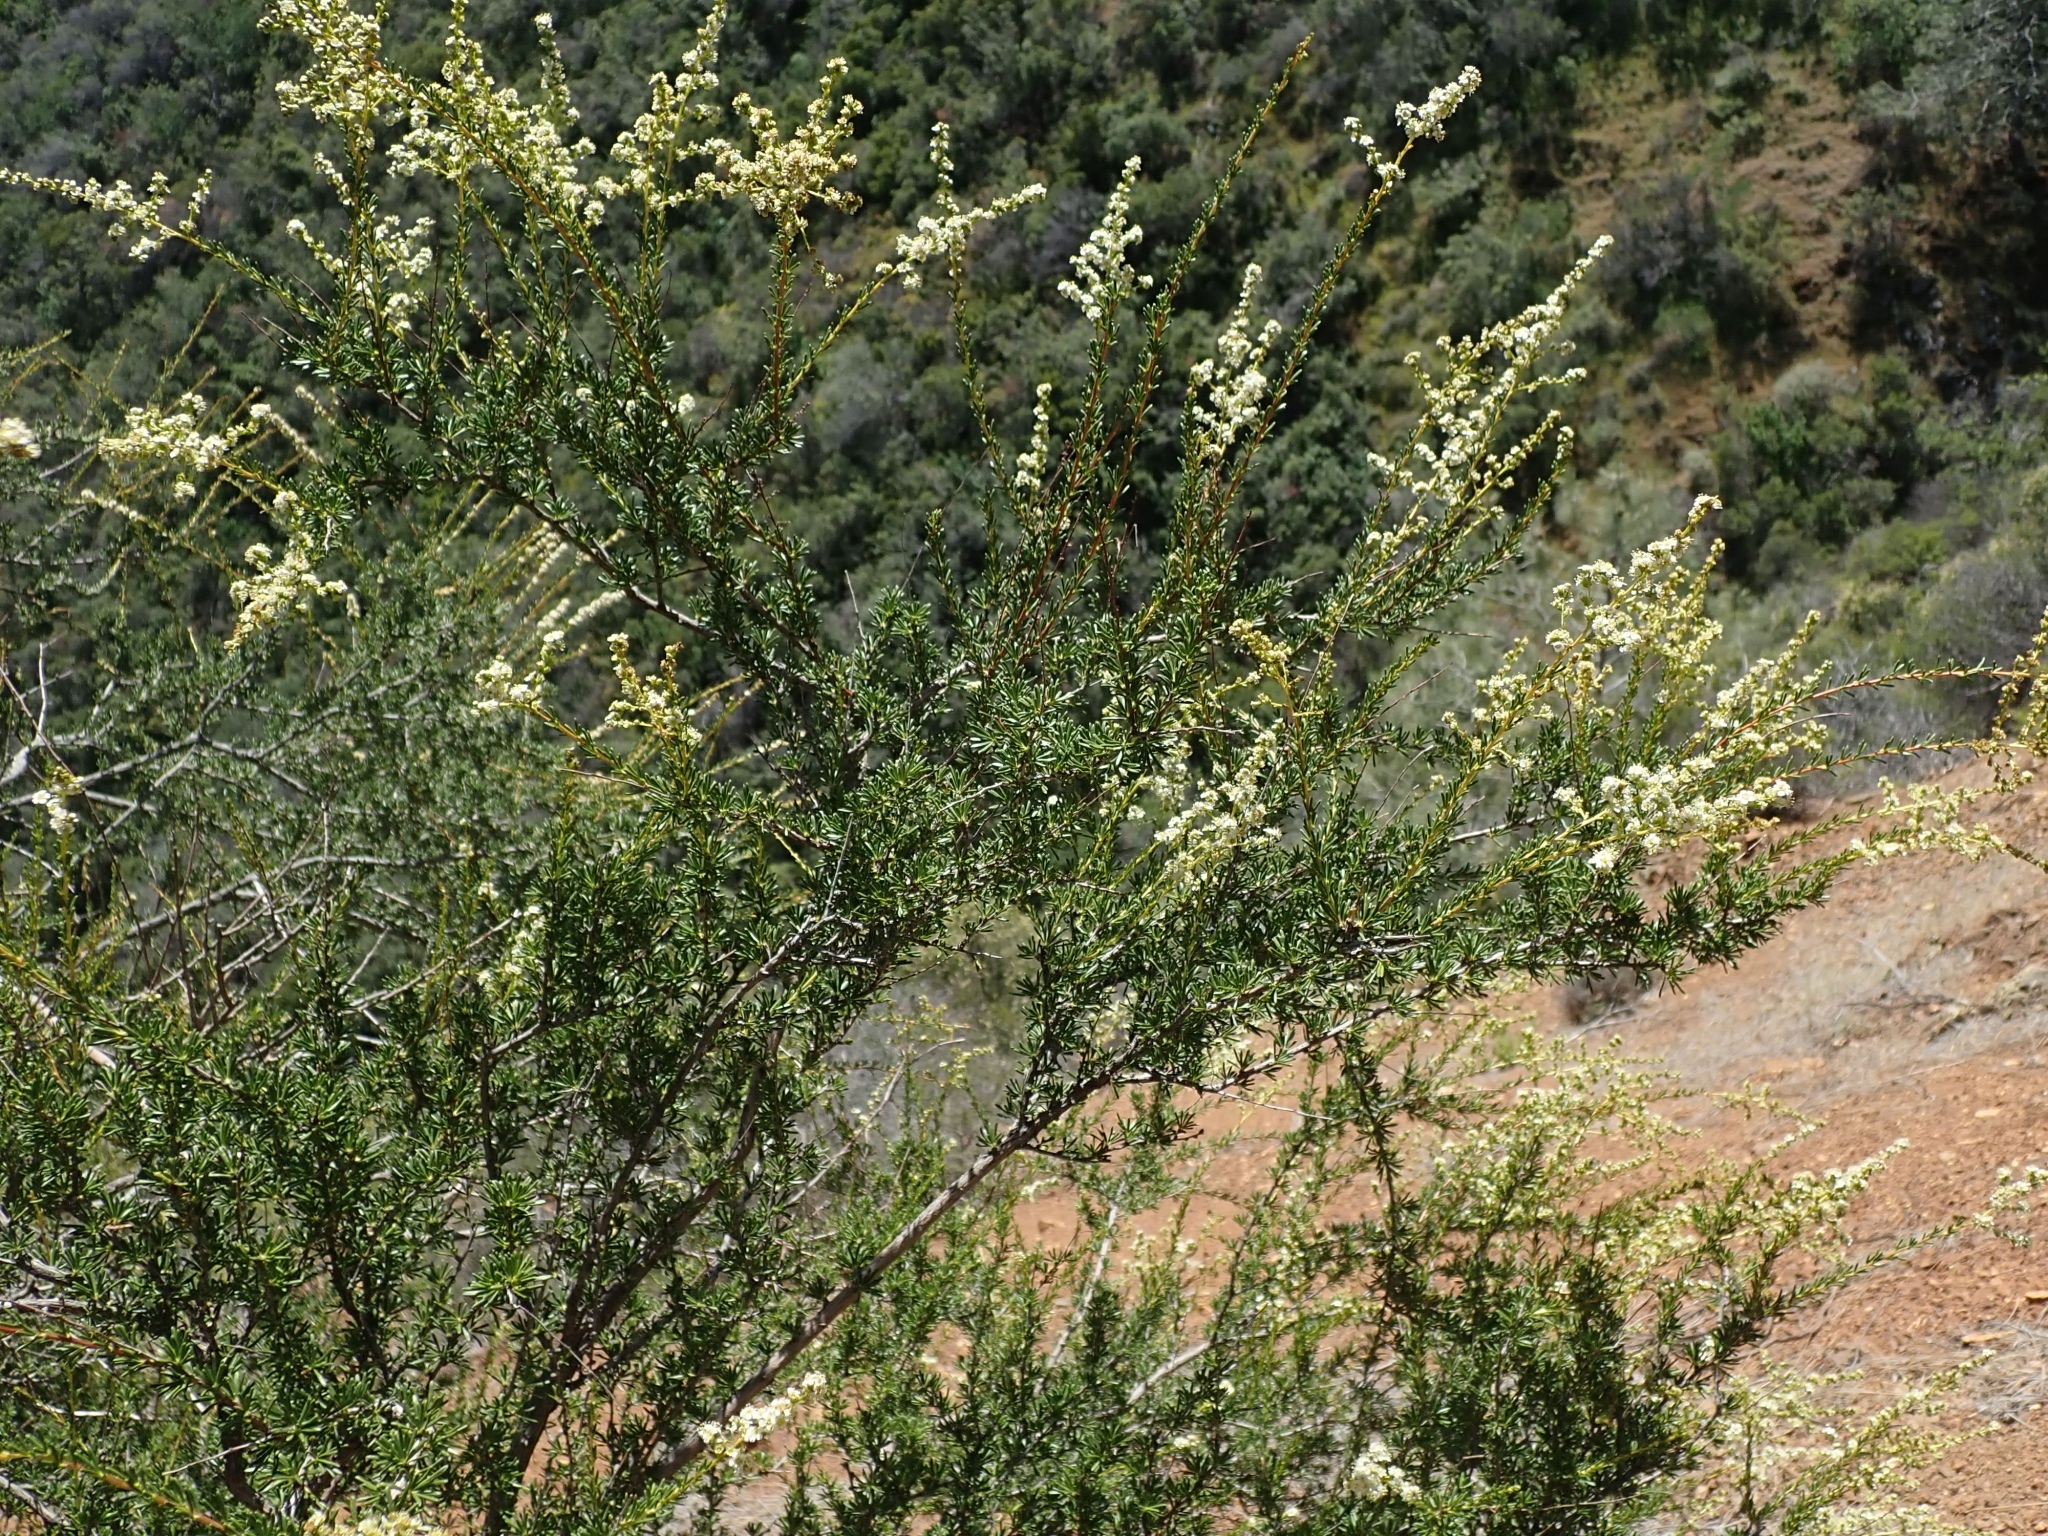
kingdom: Plantae
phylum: Tracheophyta
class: Magnoliopsida
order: Rosales
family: Rosaceae
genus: Adenostoma
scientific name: Adenostoma fasciculatum
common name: Chamise
